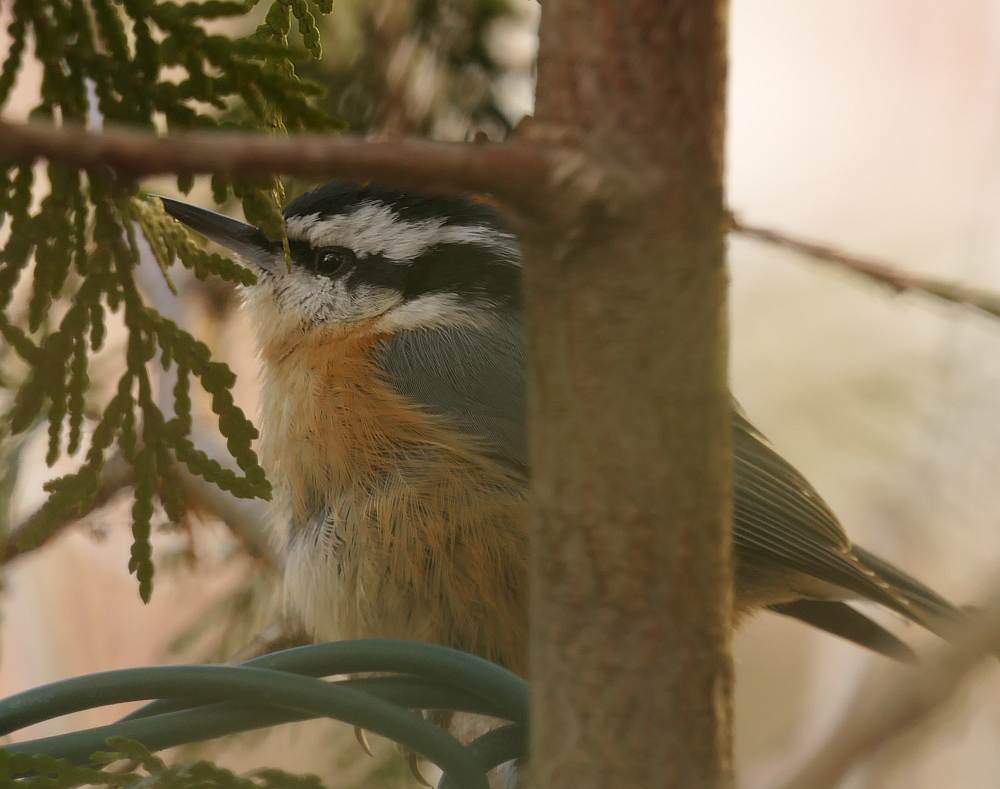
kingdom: Animalia
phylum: Chordata
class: Aves
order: Passeriformes
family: Sittidae
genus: Sitta
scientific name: Sitta canadensis
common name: Red-breasted nuthatch
